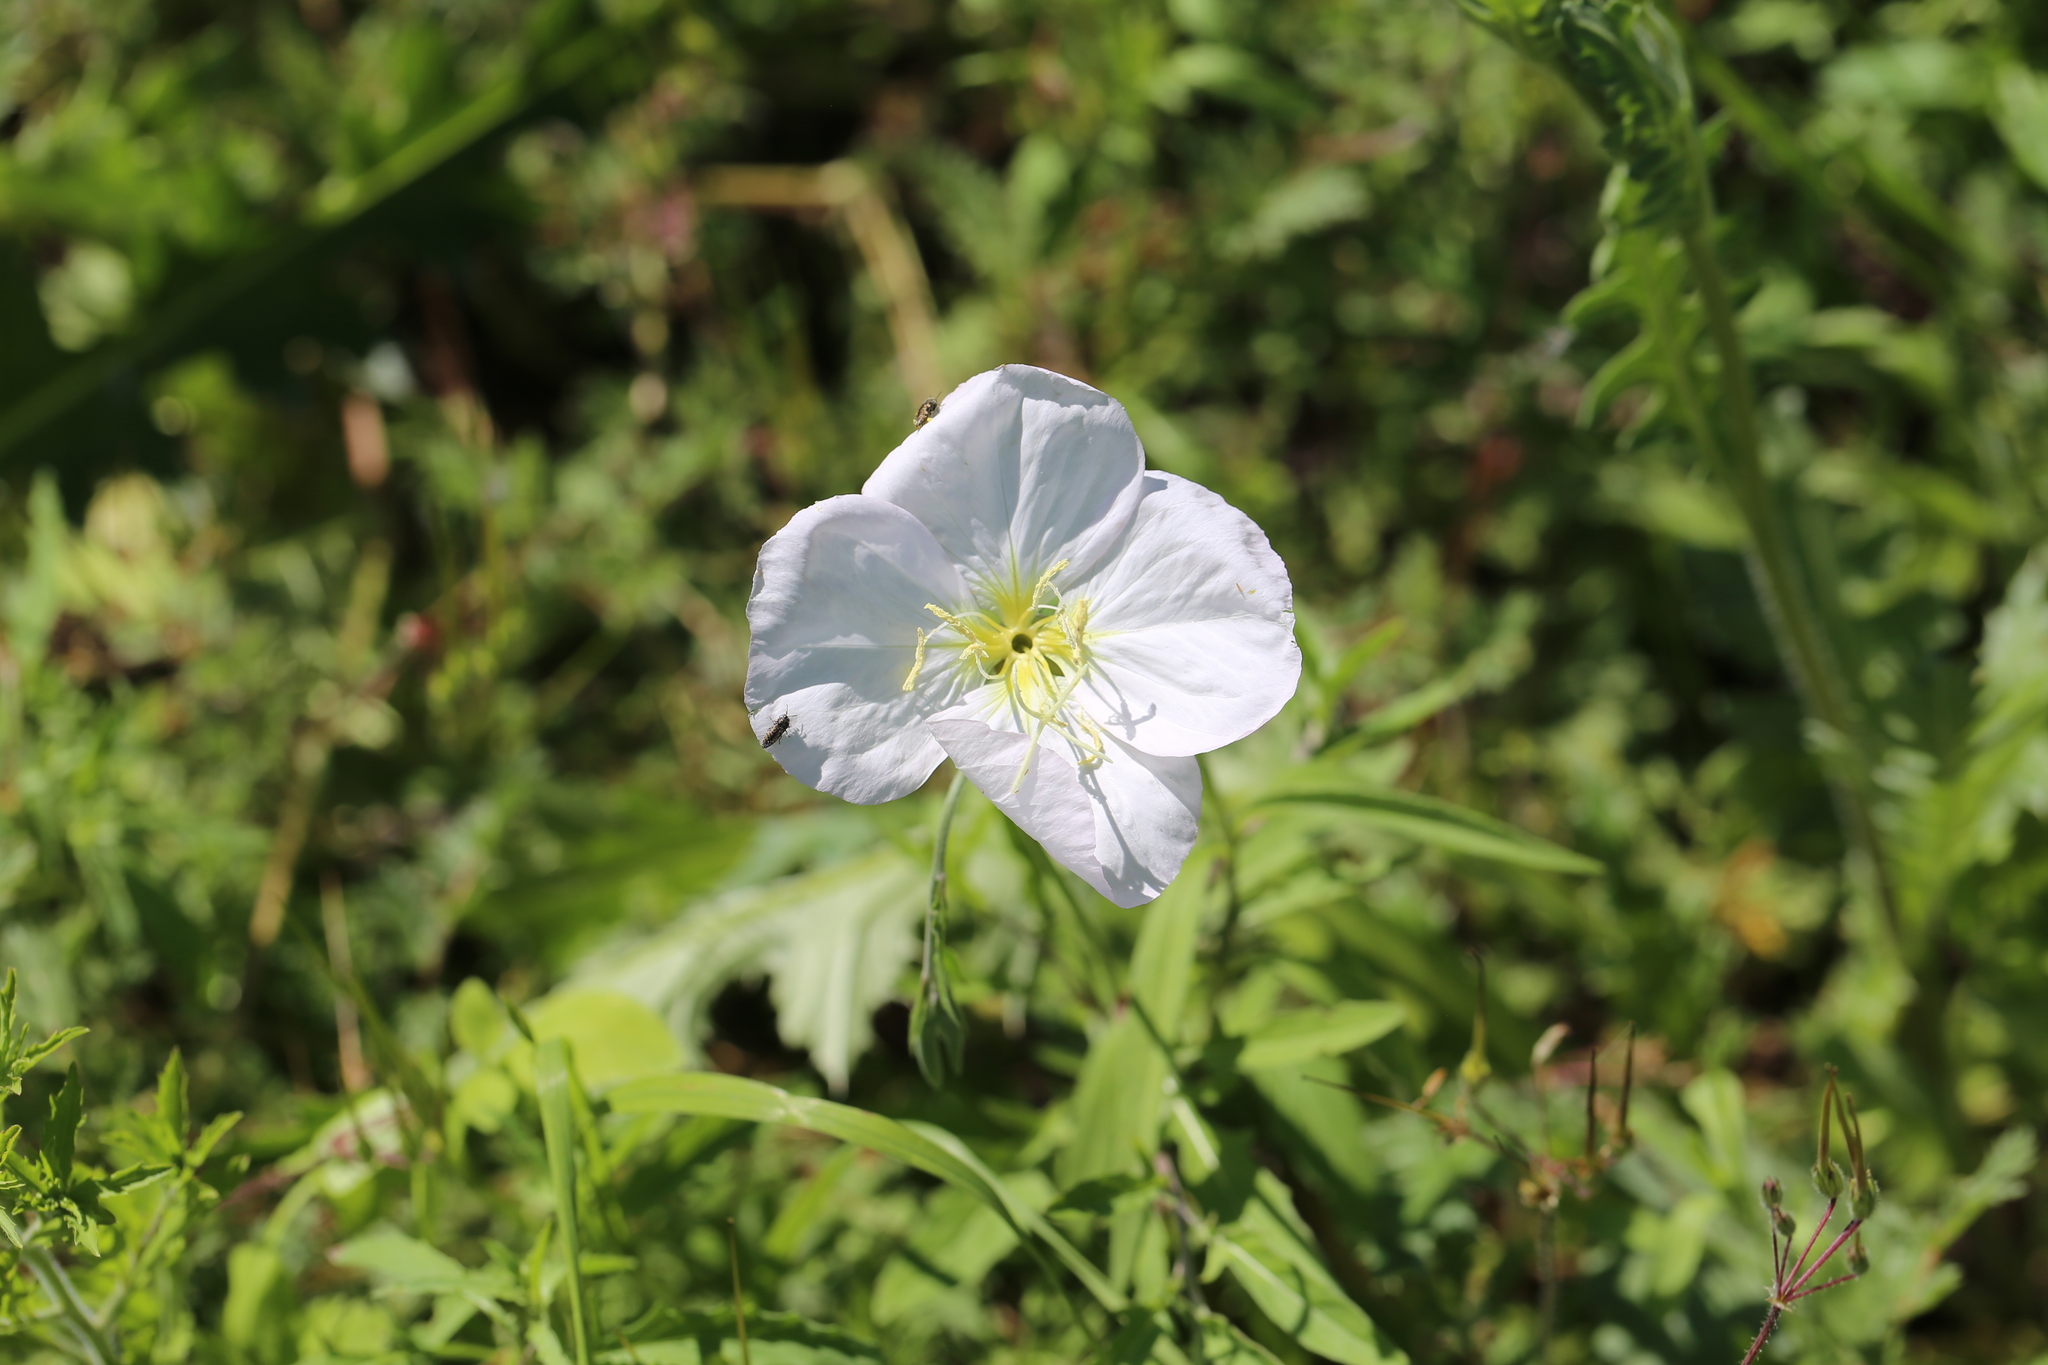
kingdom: Plantae
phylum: Tracheophyta
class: Magnoliopsida
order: Myrtales
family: Onagraceae
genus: Oenothera
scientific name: Oenothera speciosa
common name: White evening-primrose
